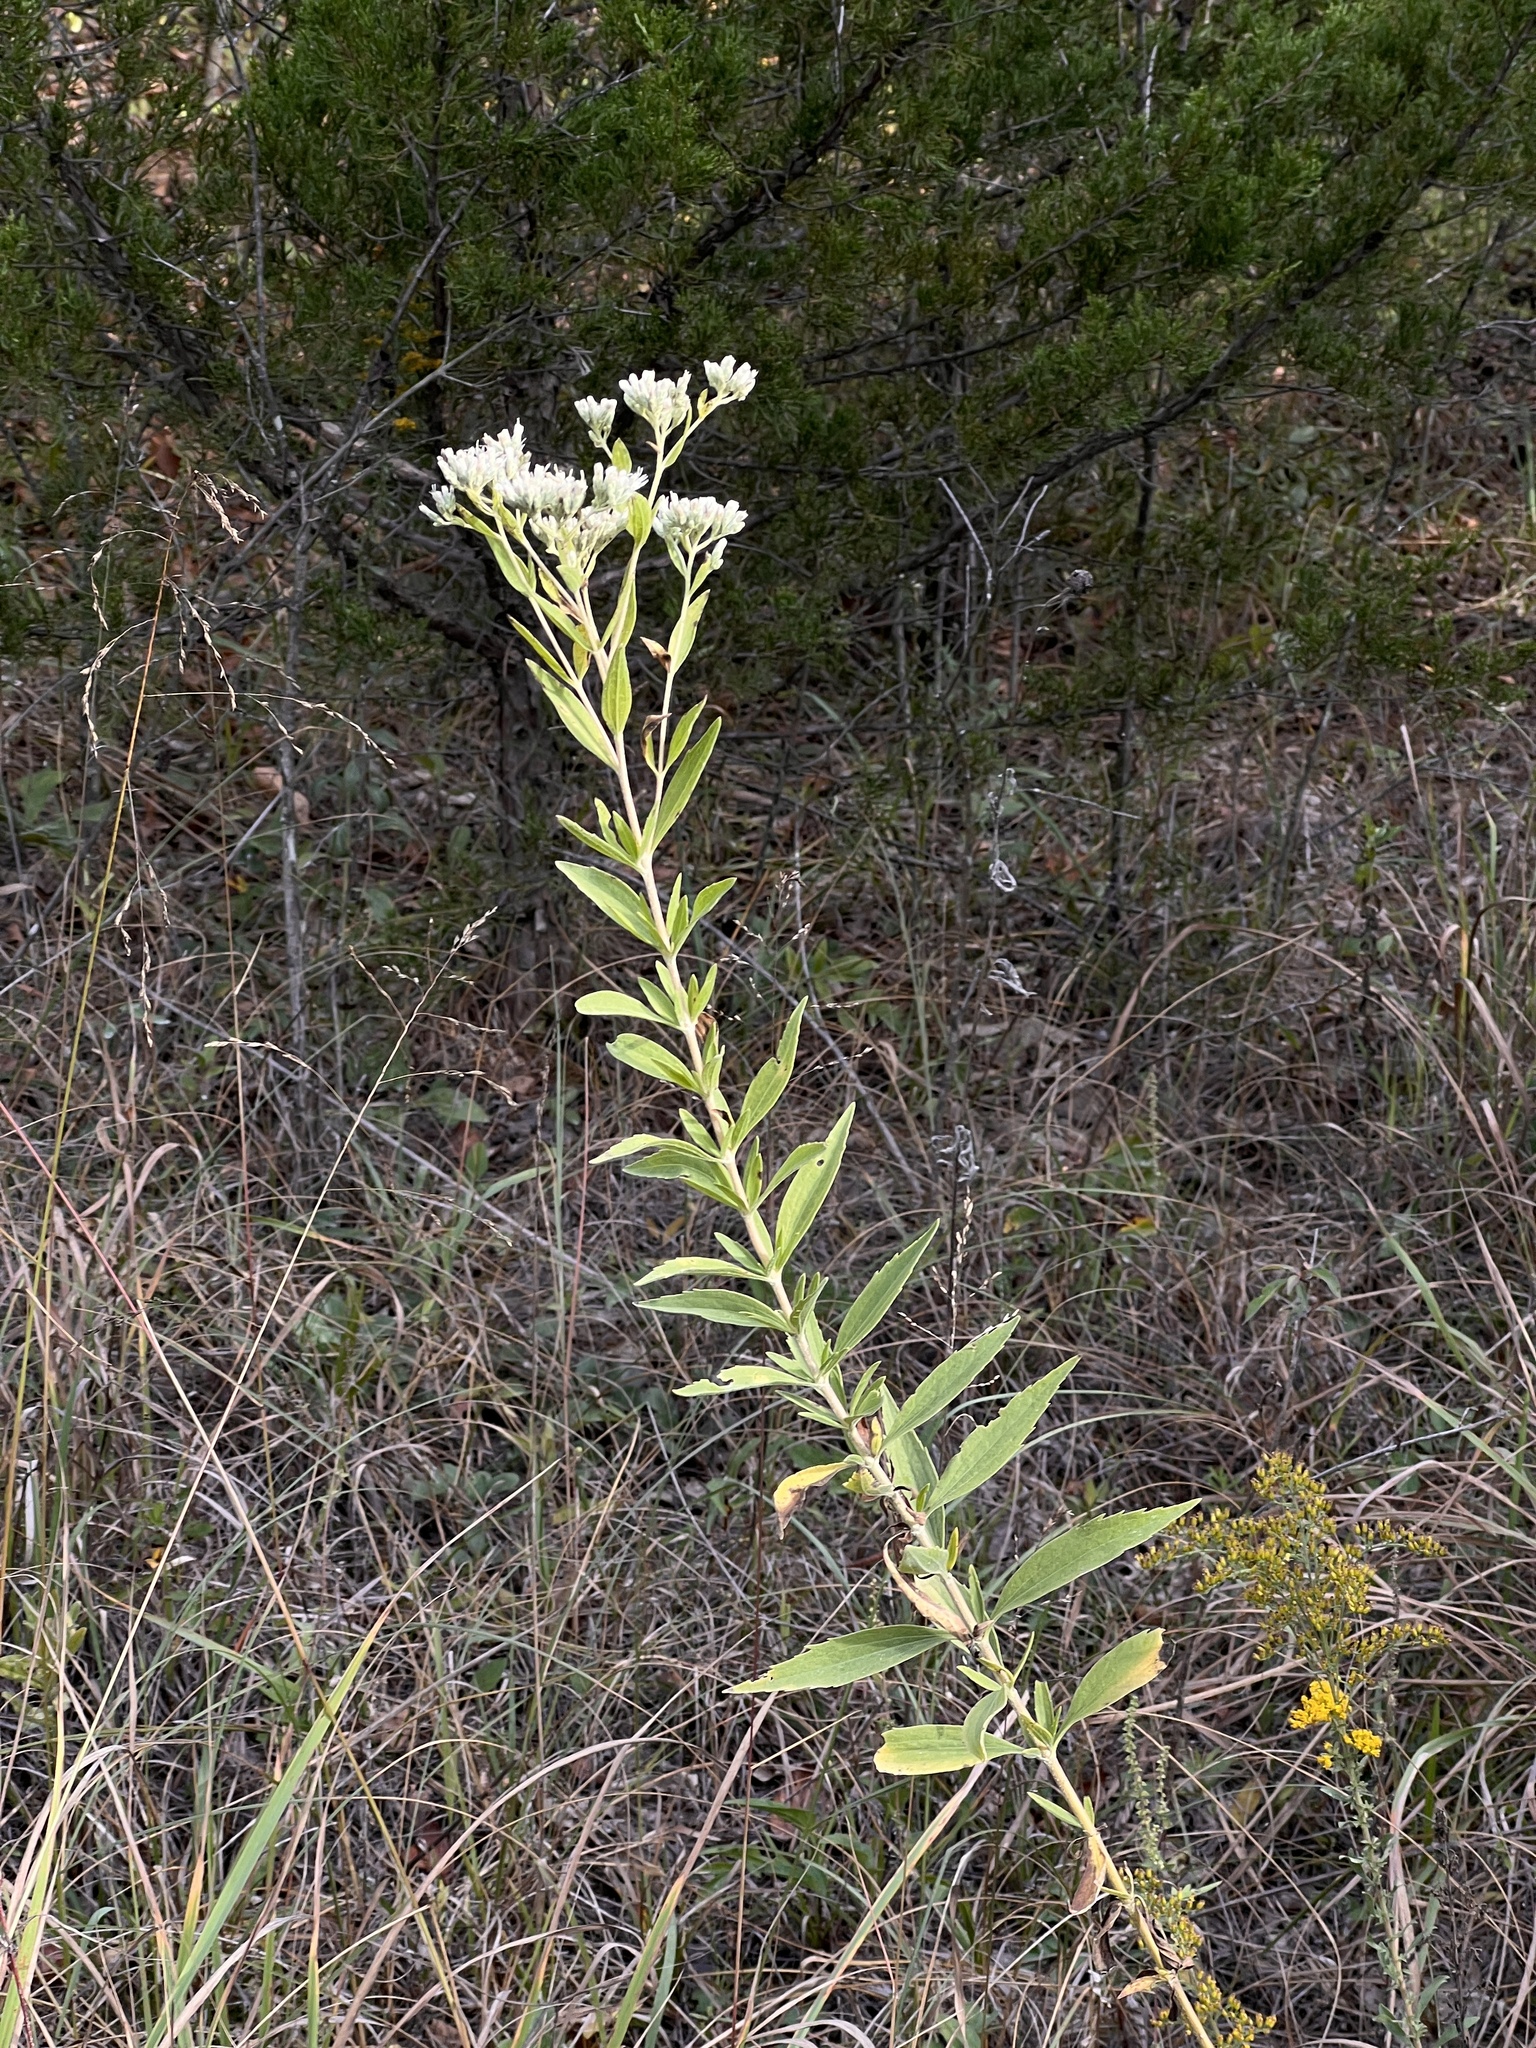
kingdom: Plantae
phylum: Tracheophyta
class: Magnoliopsida
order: Asterales
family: Asteraceae
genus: Eupatorium
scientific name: Eupatorium altissimum
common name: Tall thoroughwort
